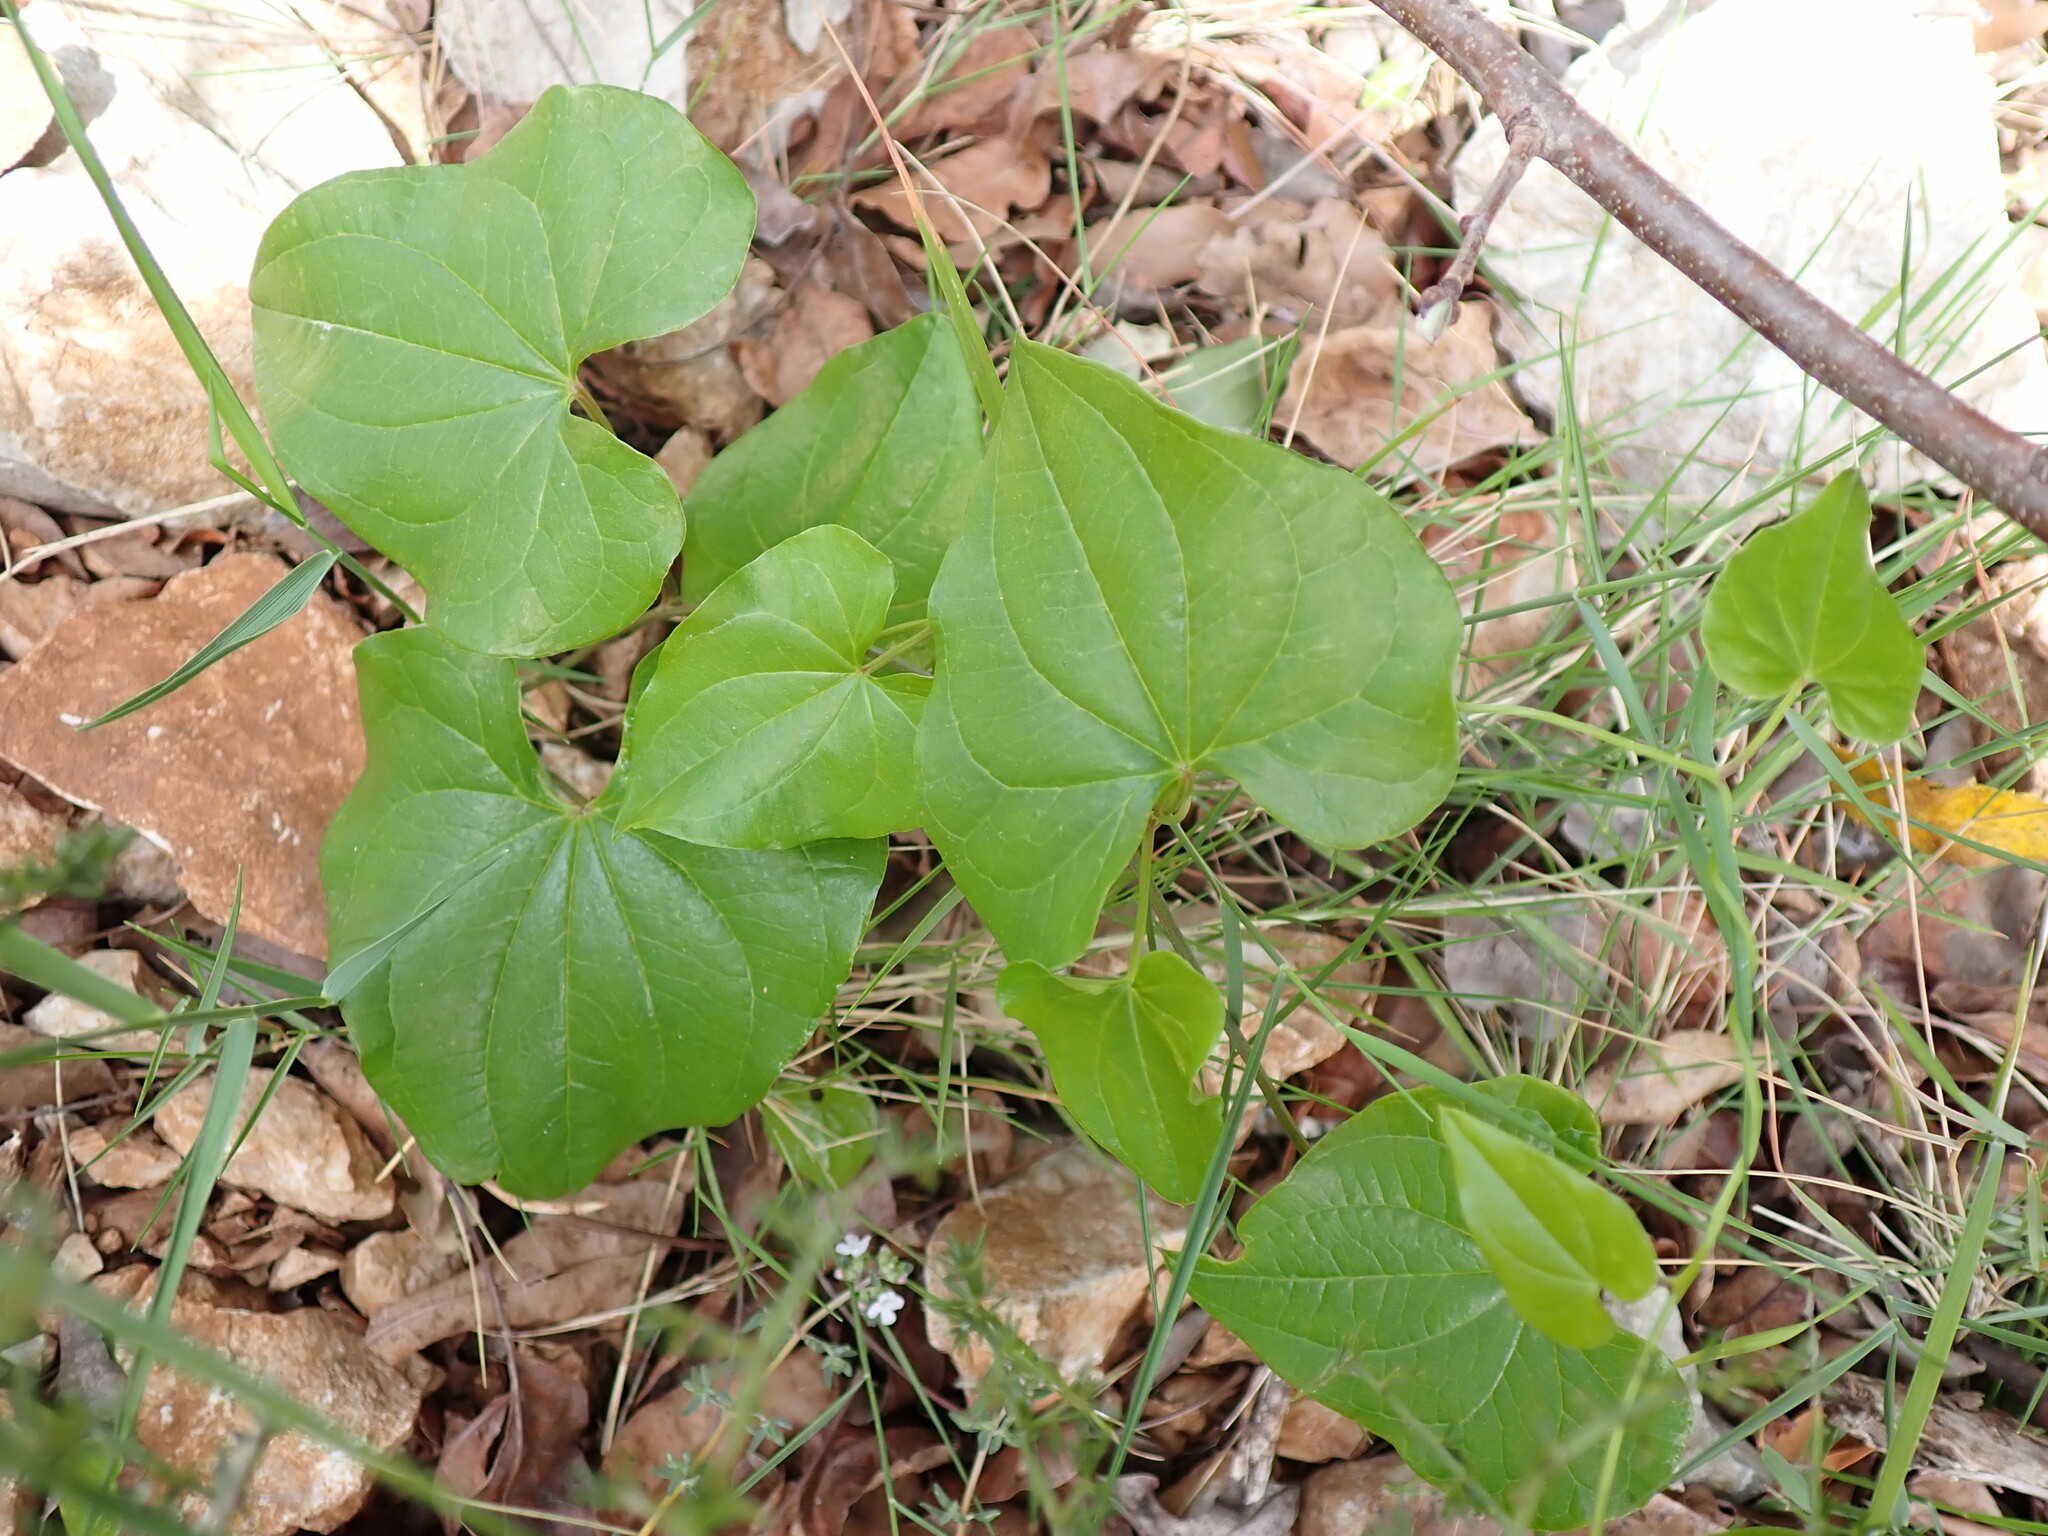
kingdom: Plantae
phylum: Tracheophyta
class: Liliopsida
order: Dioscoreales
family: Dioscoreaceae
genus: Dioscorea
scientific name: Dioscorea communis
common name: Black-bindweed
